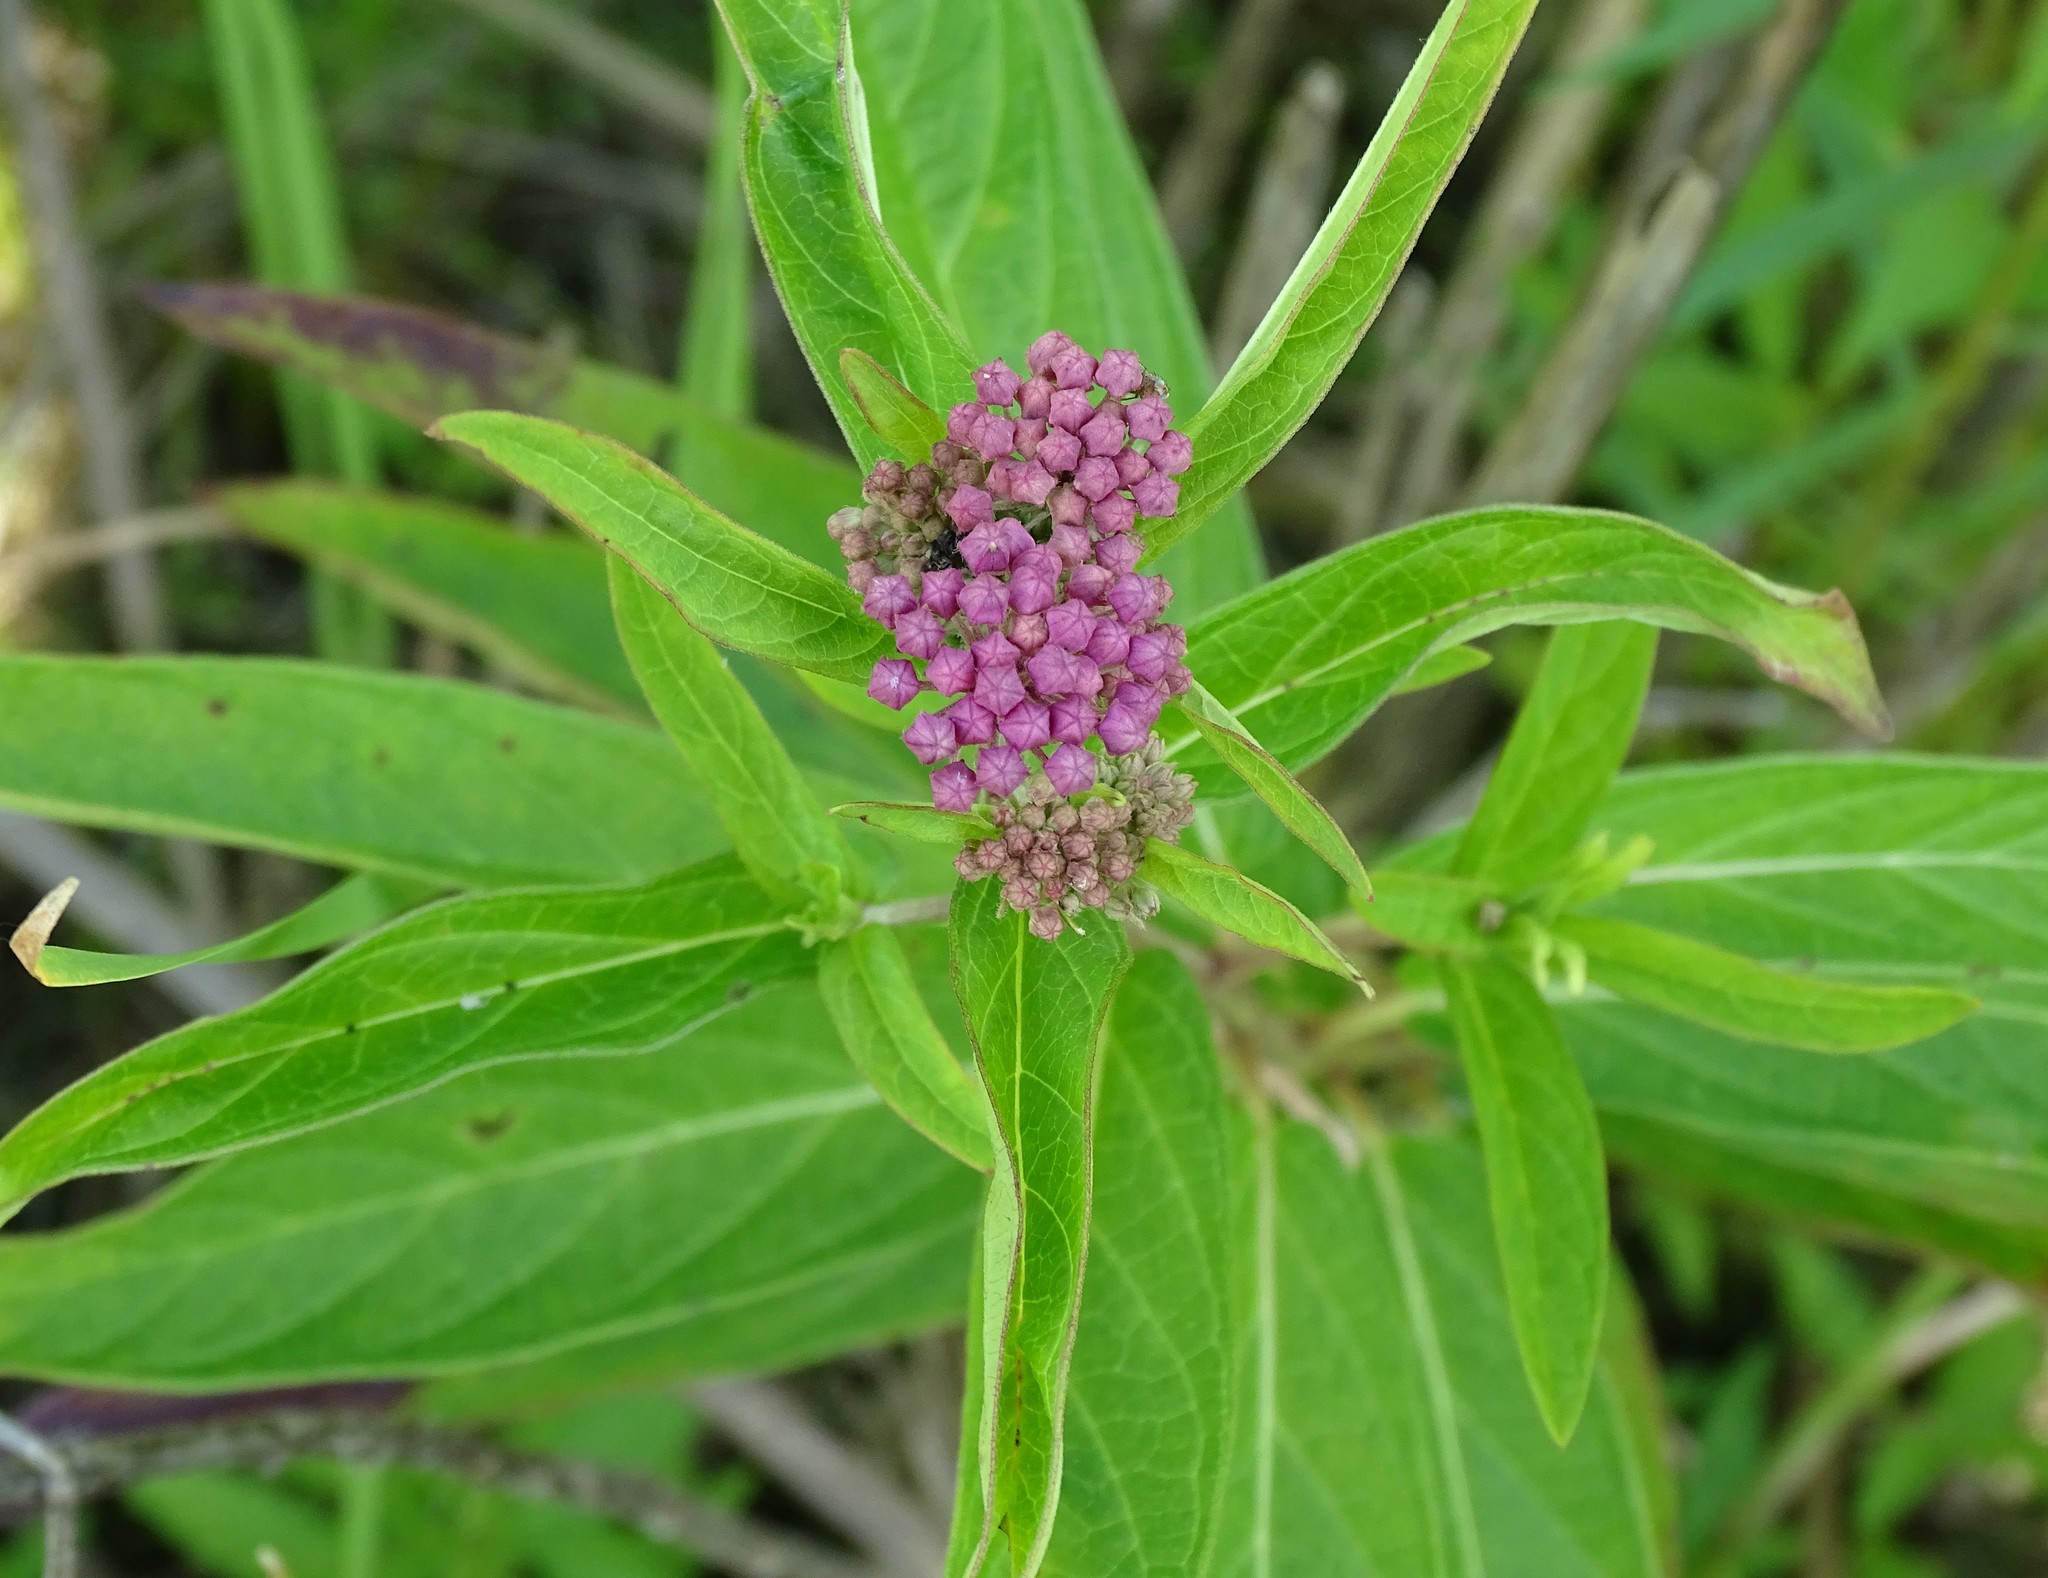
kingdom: Plantae
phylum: Tracheophyta
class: Magnoliopsida
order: Gentianales
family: Apocynaceae
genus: Asclepias
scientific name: Asclepias incarnata
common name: Swamp milkweed
